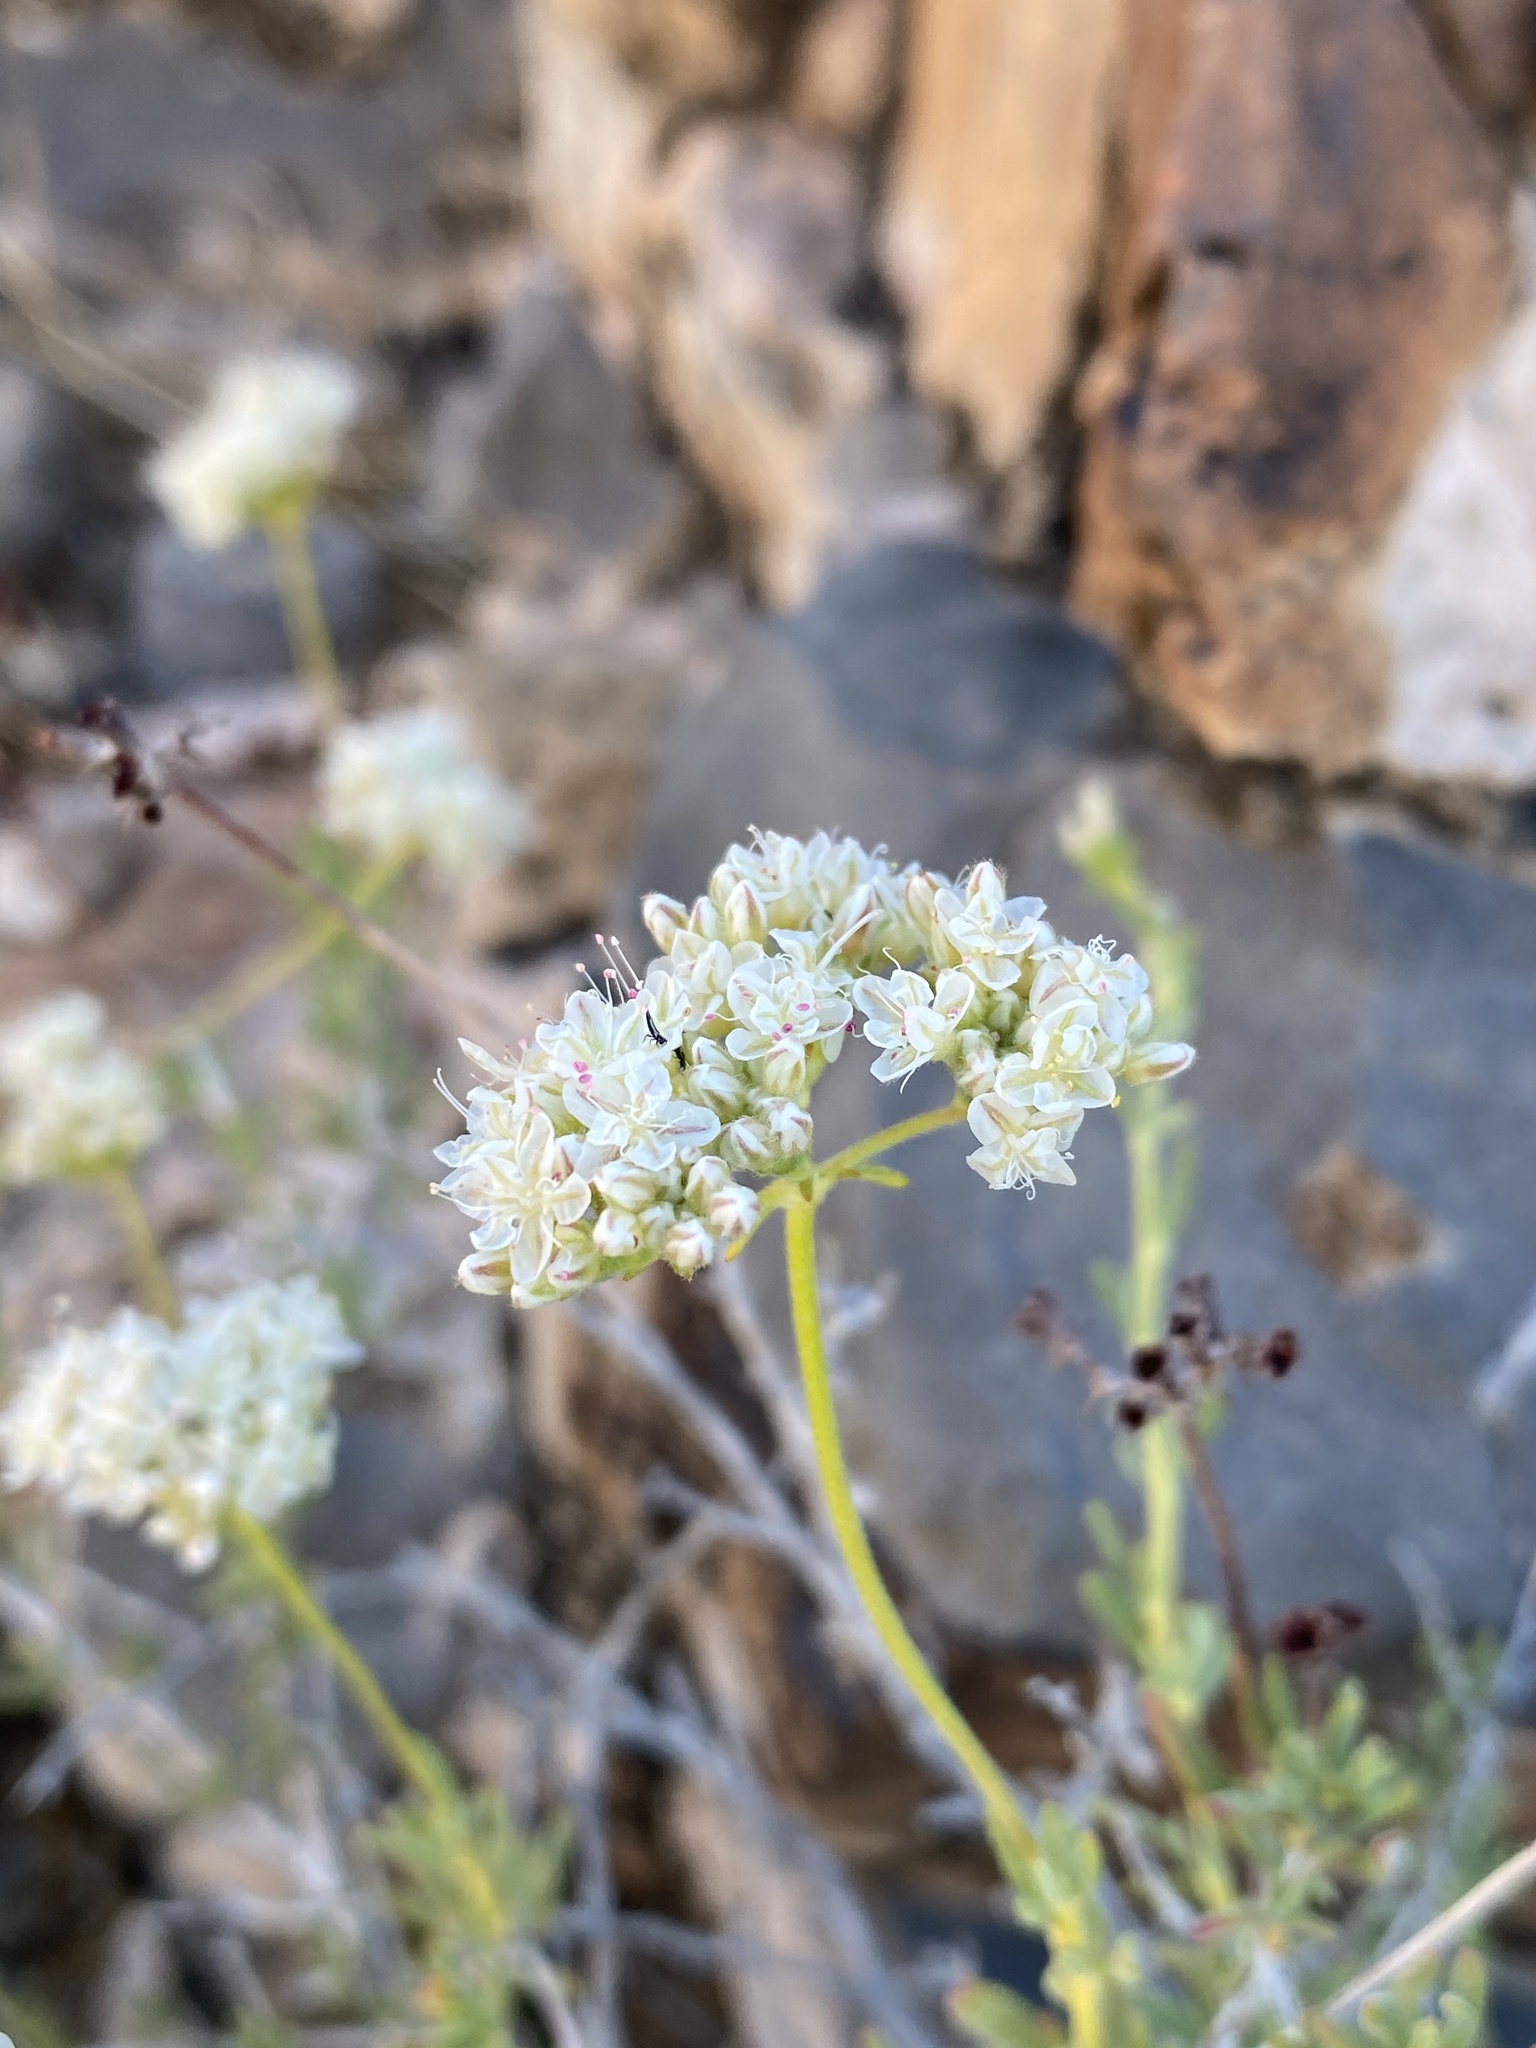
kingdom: Plantae
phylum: Tracheophyta
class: Magnoliopsida
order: Caryophyllales
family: Polygonaceae
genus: Eriogonum
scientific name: Eriogonum fasciculatum
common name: California wild buckwheat
